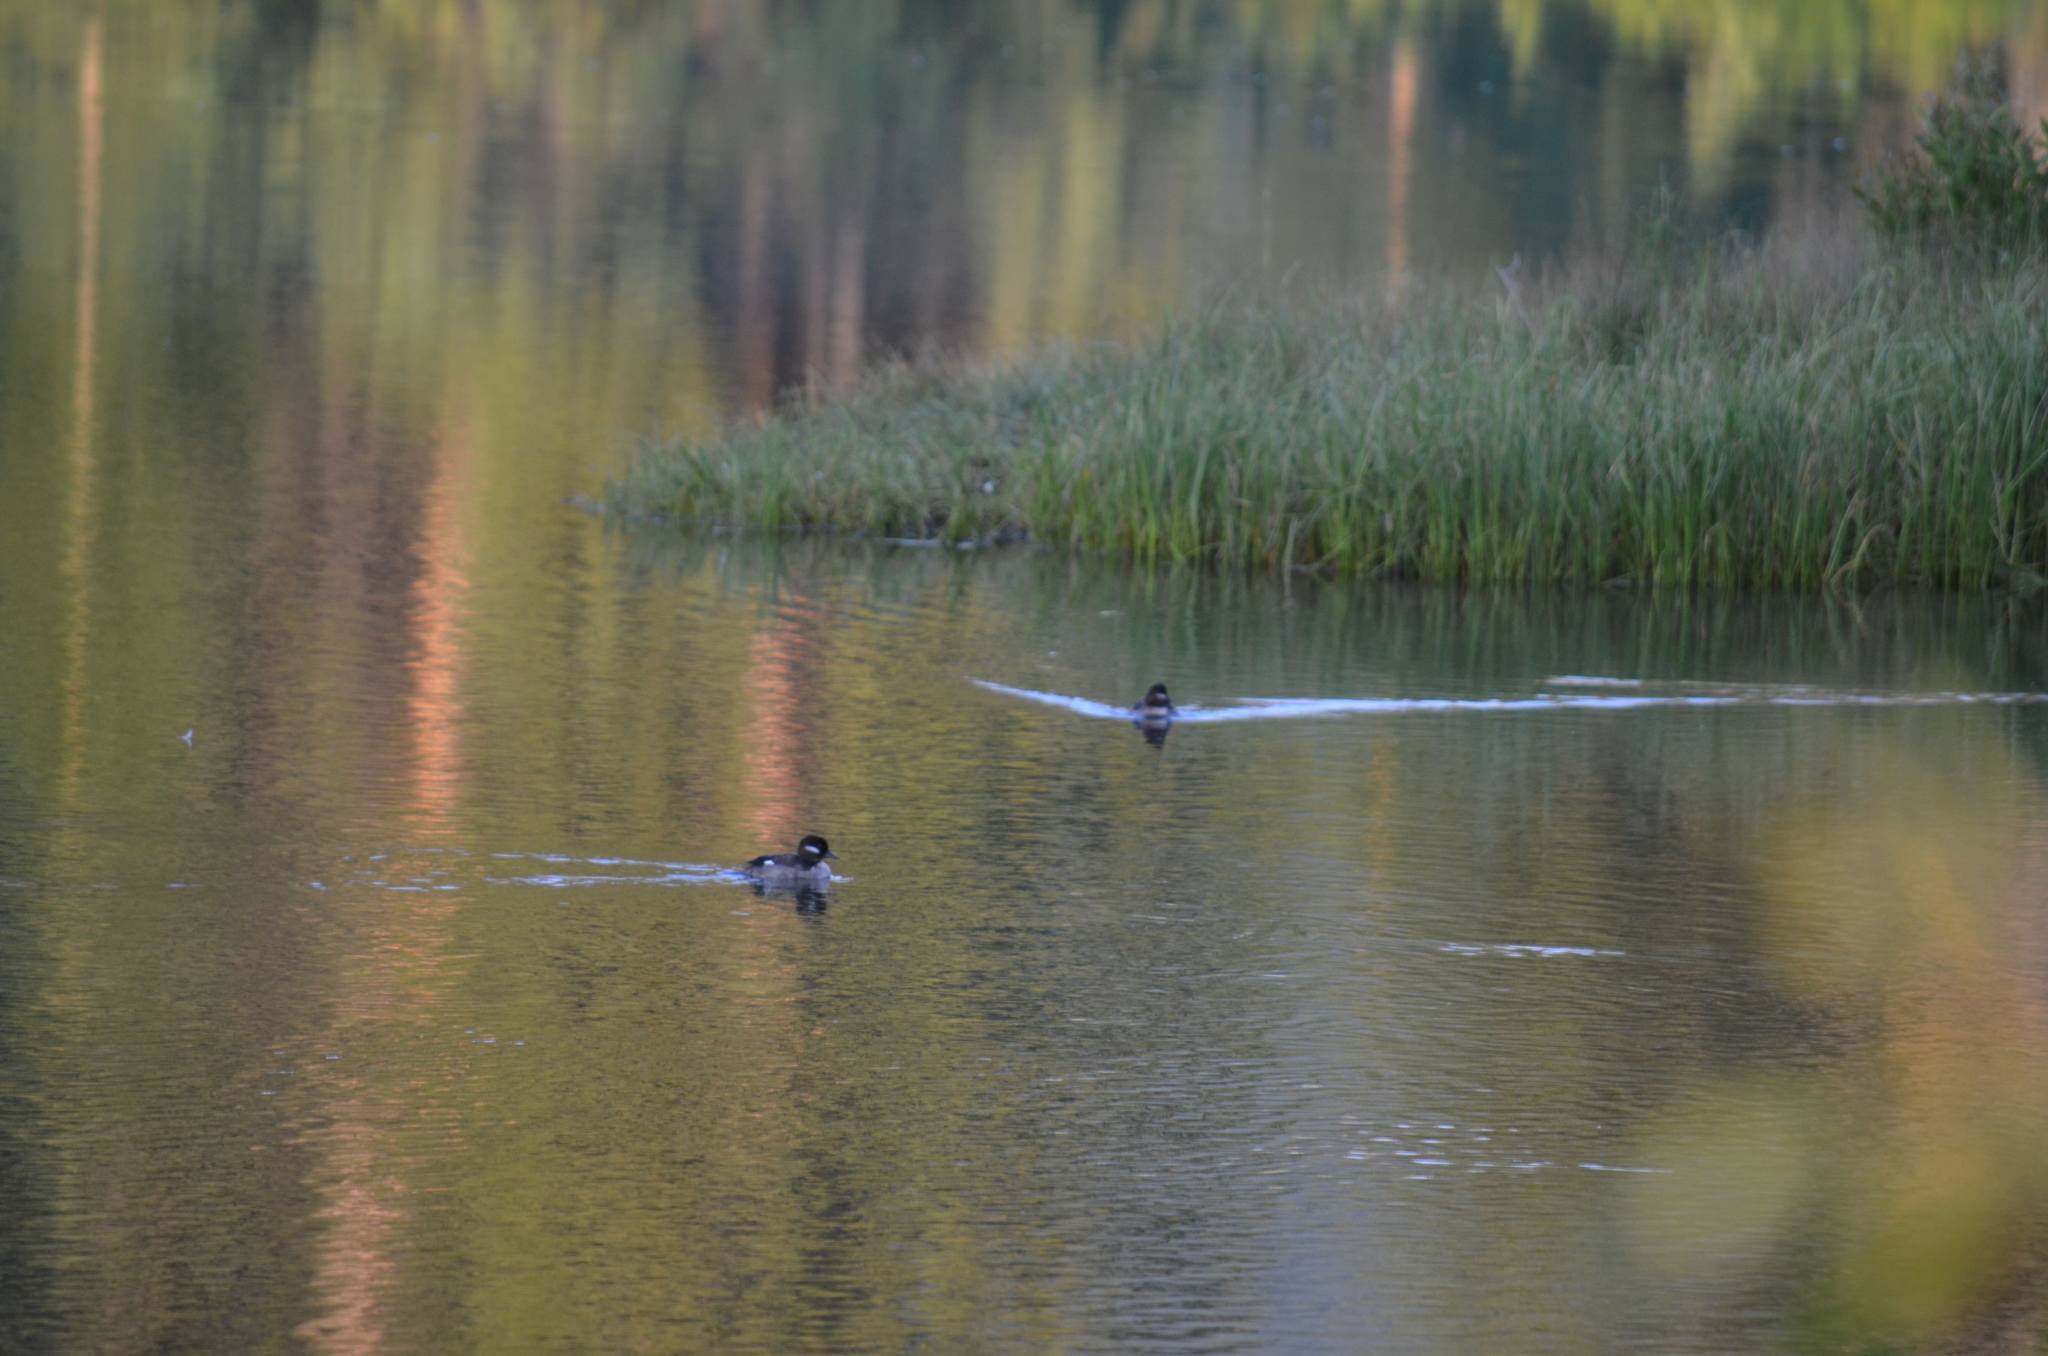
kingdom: Animalia
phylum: Chordata
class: Aves
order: Anseriformes
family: Anatidae
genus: Bucephala
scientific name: Bucephala albeola
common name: Bufflehead
